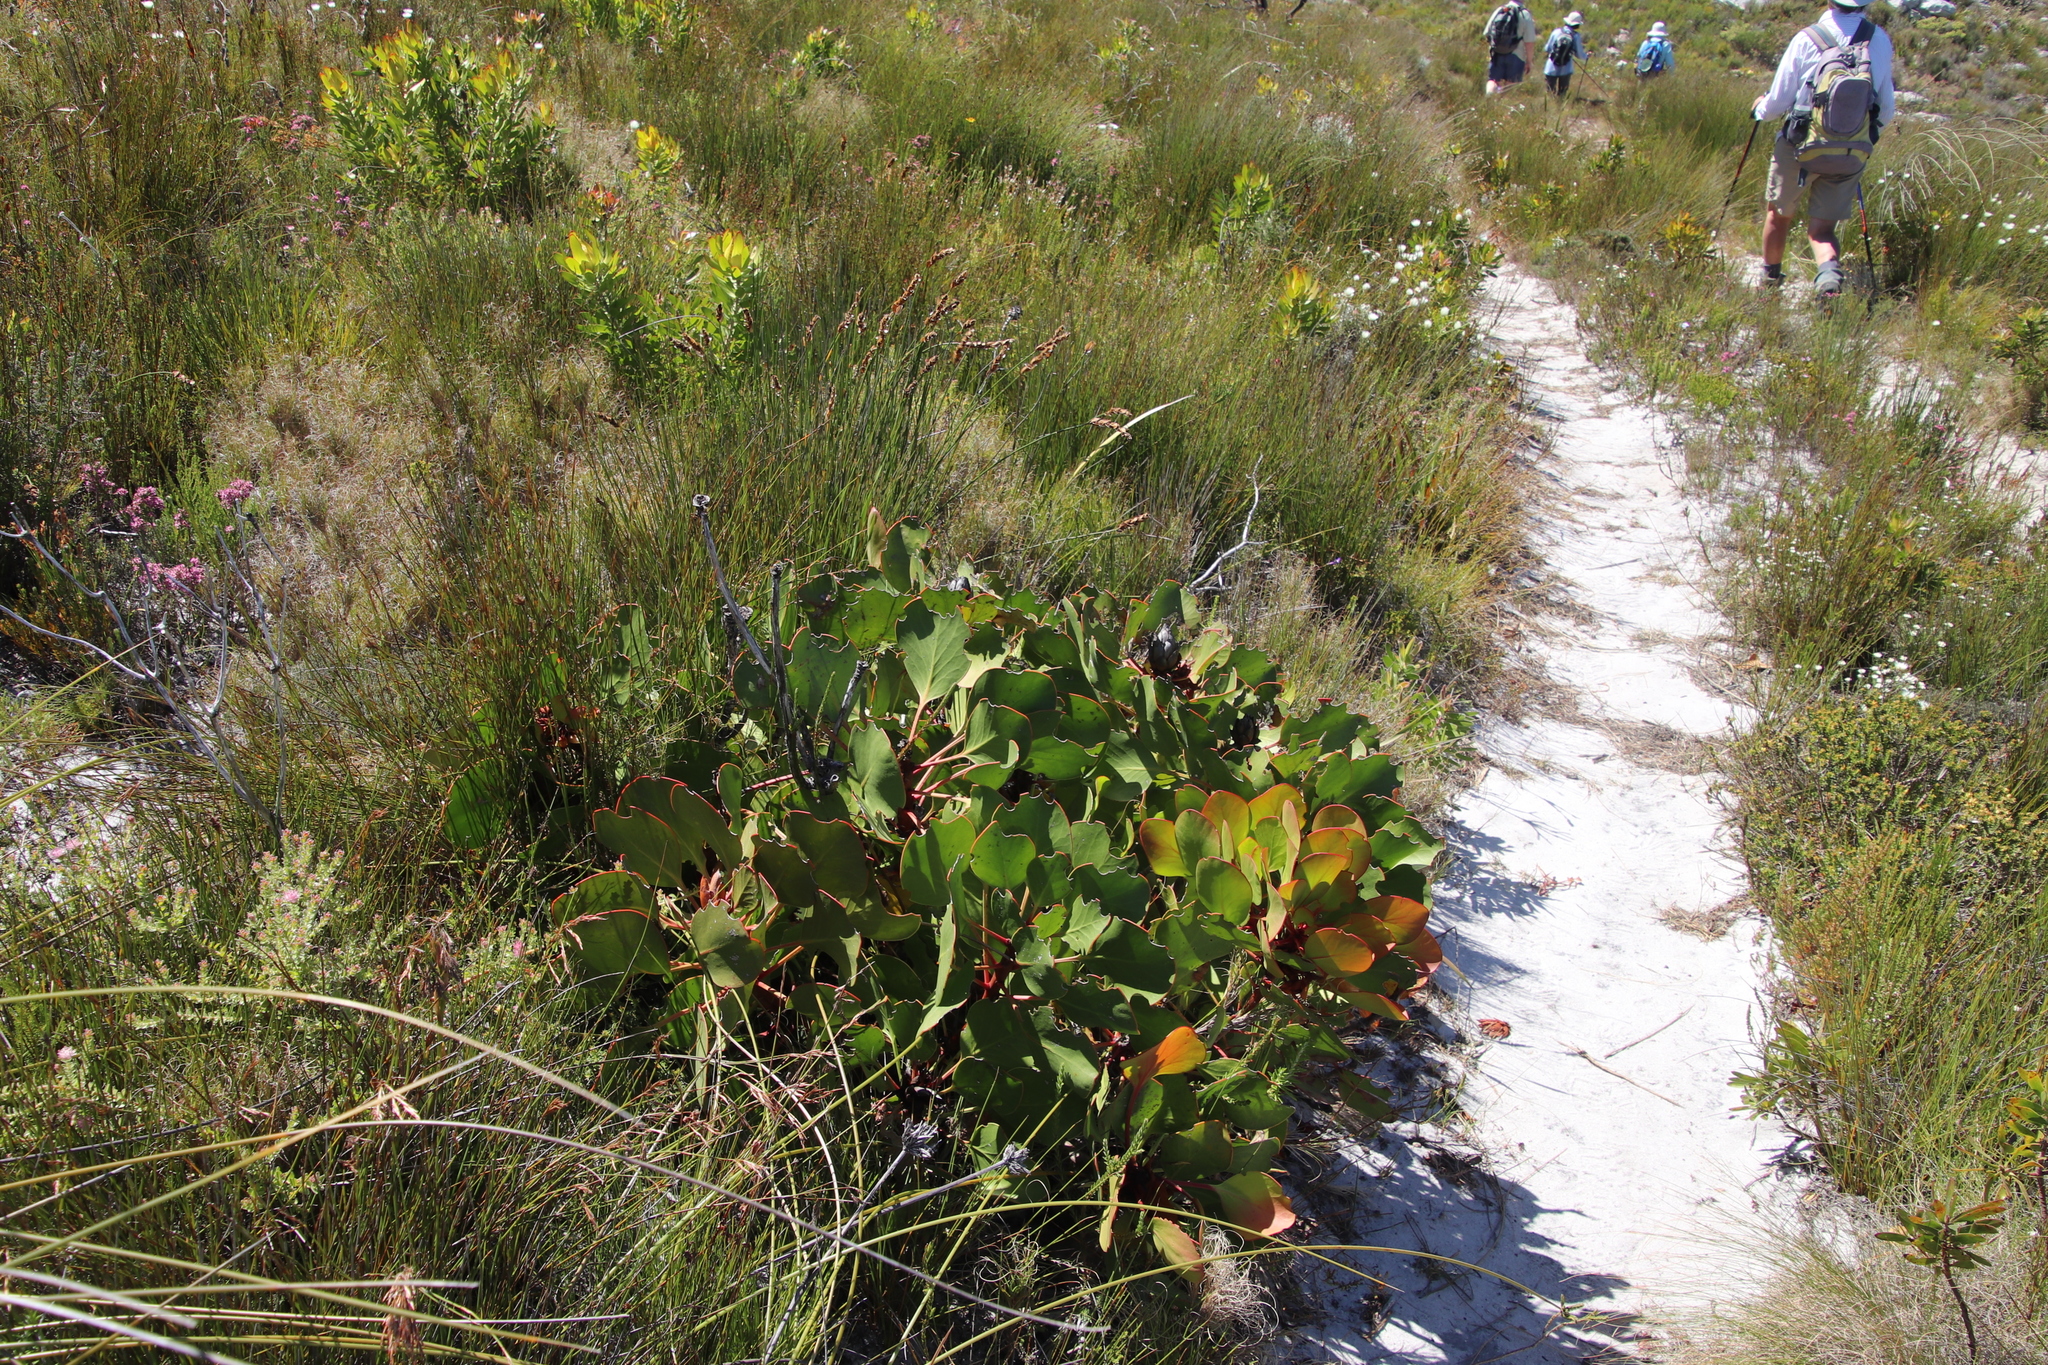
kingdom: Plantae
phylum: Tracheophyta
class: Magnoliopsida
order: Proteales
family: Proteaceae
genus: Protea
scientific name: Protea cynaroides
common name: King protea
